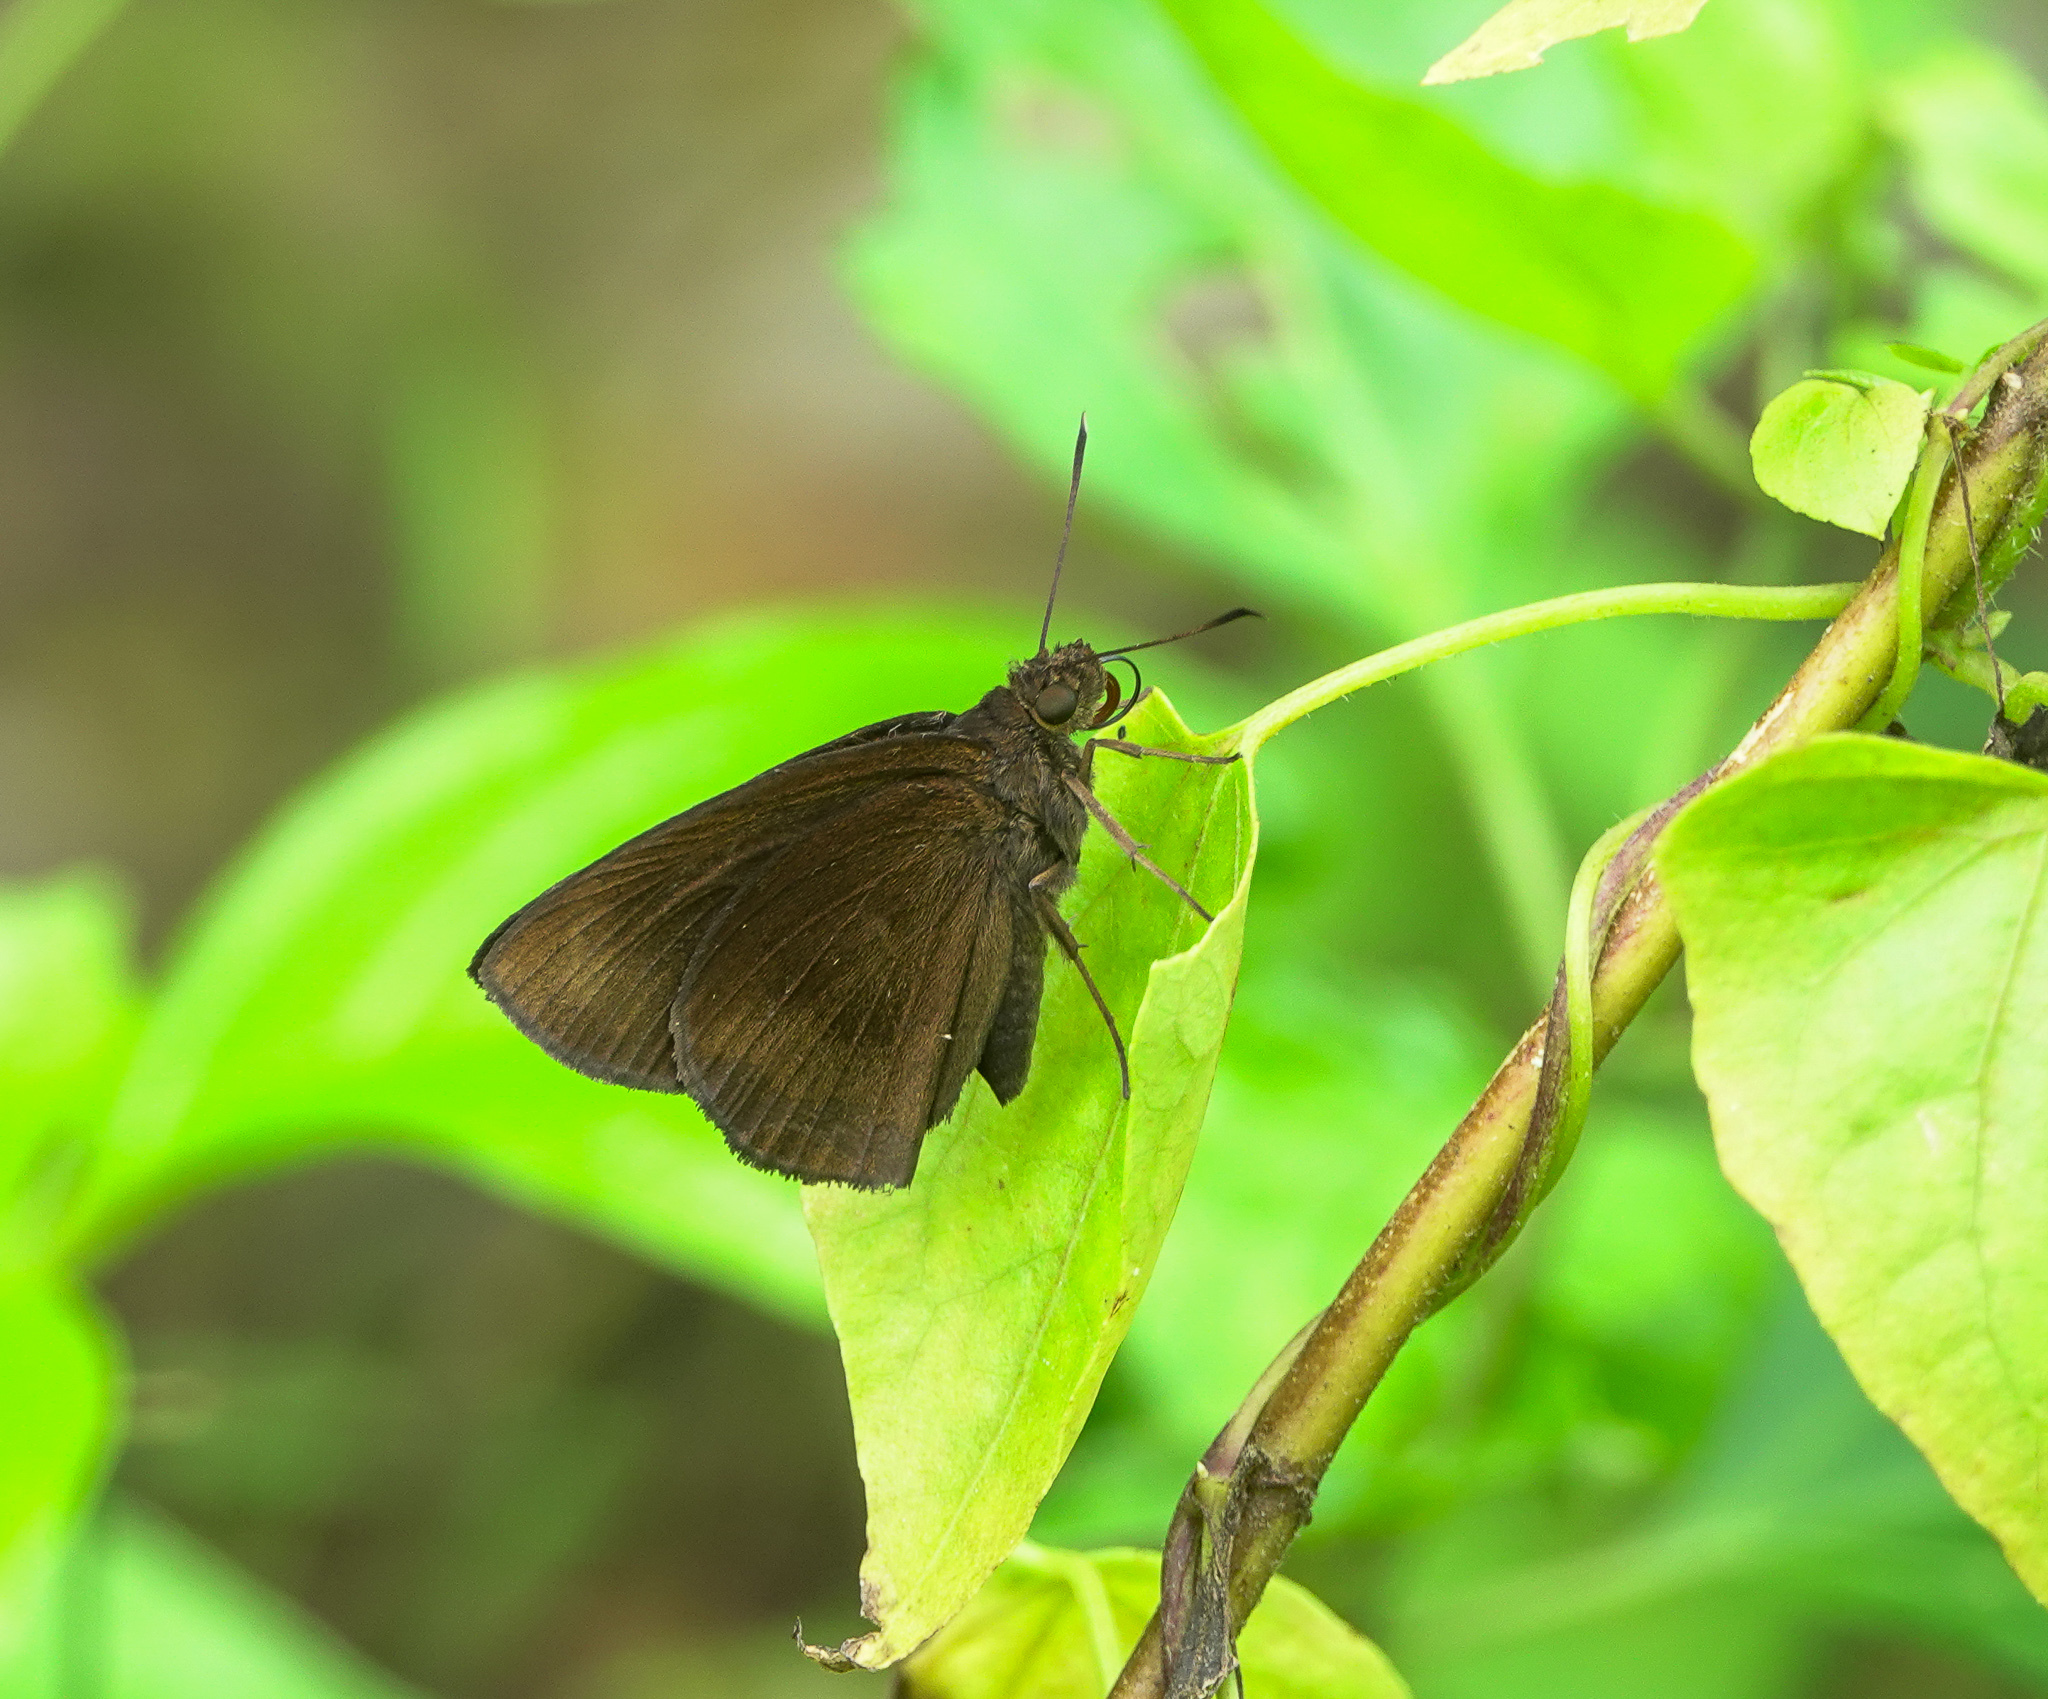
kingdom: Animalia
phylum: Arthropoda
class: Insecta
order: Lepidoptera
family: Hesperiidae
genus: Astictopterus
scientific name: Astictopterus jama
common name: Forest hopper
